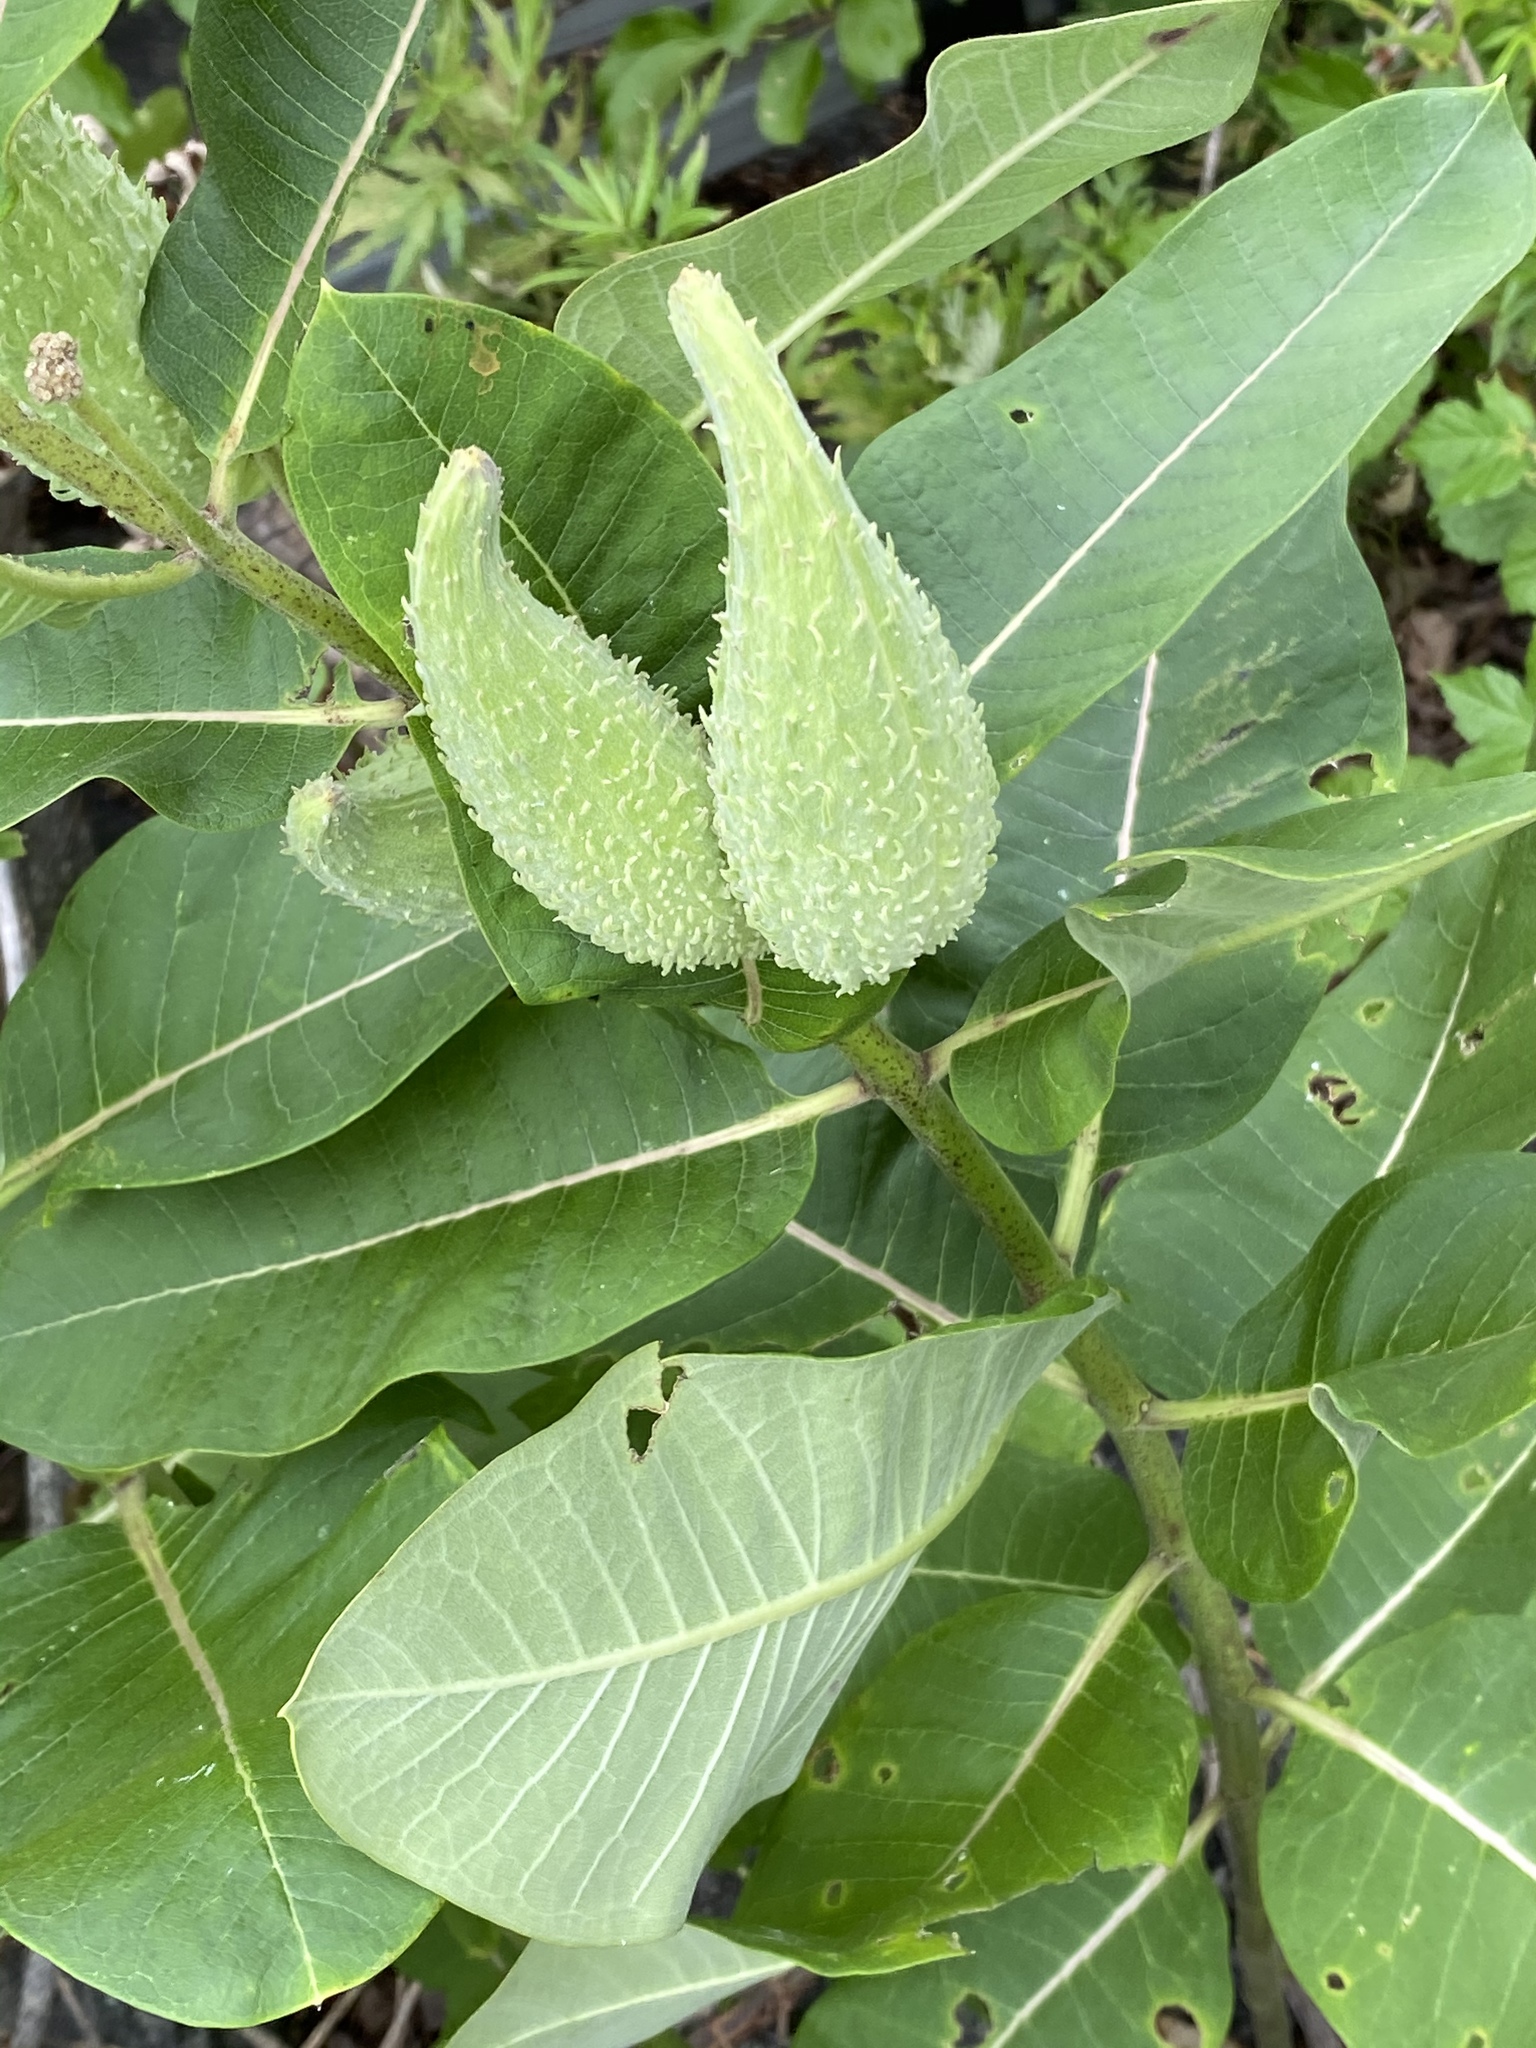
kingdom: Plantae
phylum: Tracheophyta
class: Magnoliopsida
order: Gentianales
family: Apocynaceae
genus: Asclepias
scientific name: Asclepias syriaca
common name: Common milkweed
